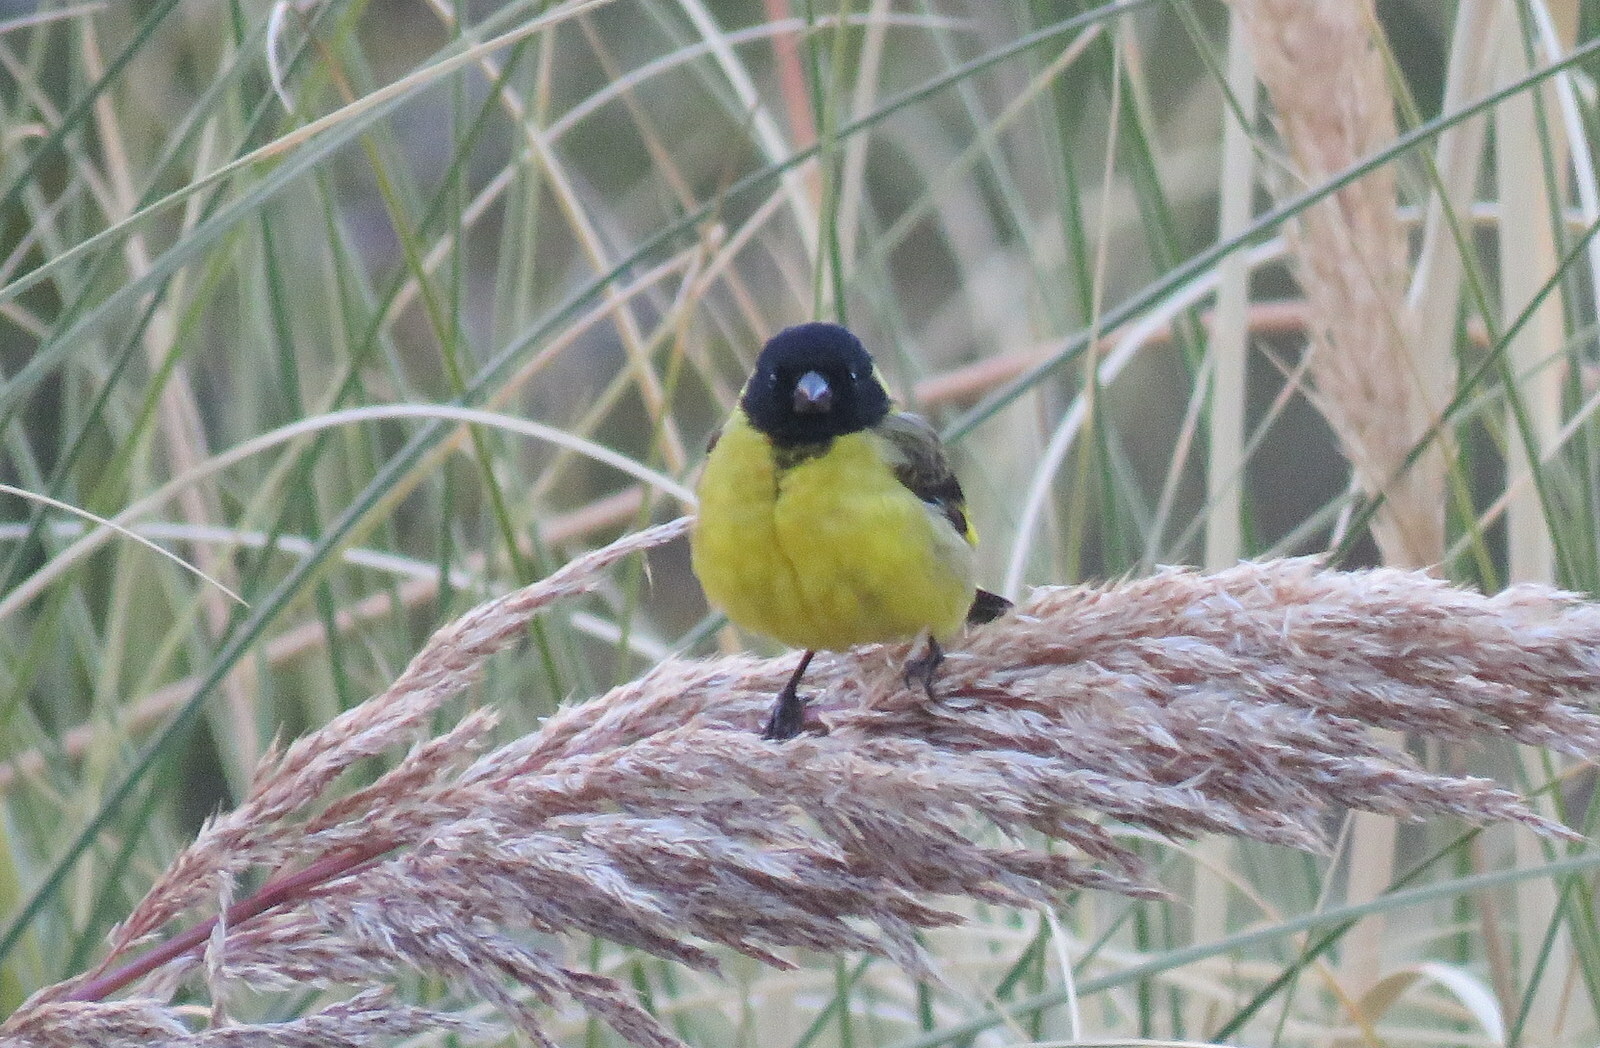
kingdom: Animalia
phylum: Chordata
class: Aves
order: Passeriformes
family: Fringillidae
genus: Spinus
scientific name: Spinus magellanicus
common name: Hooded siskin
